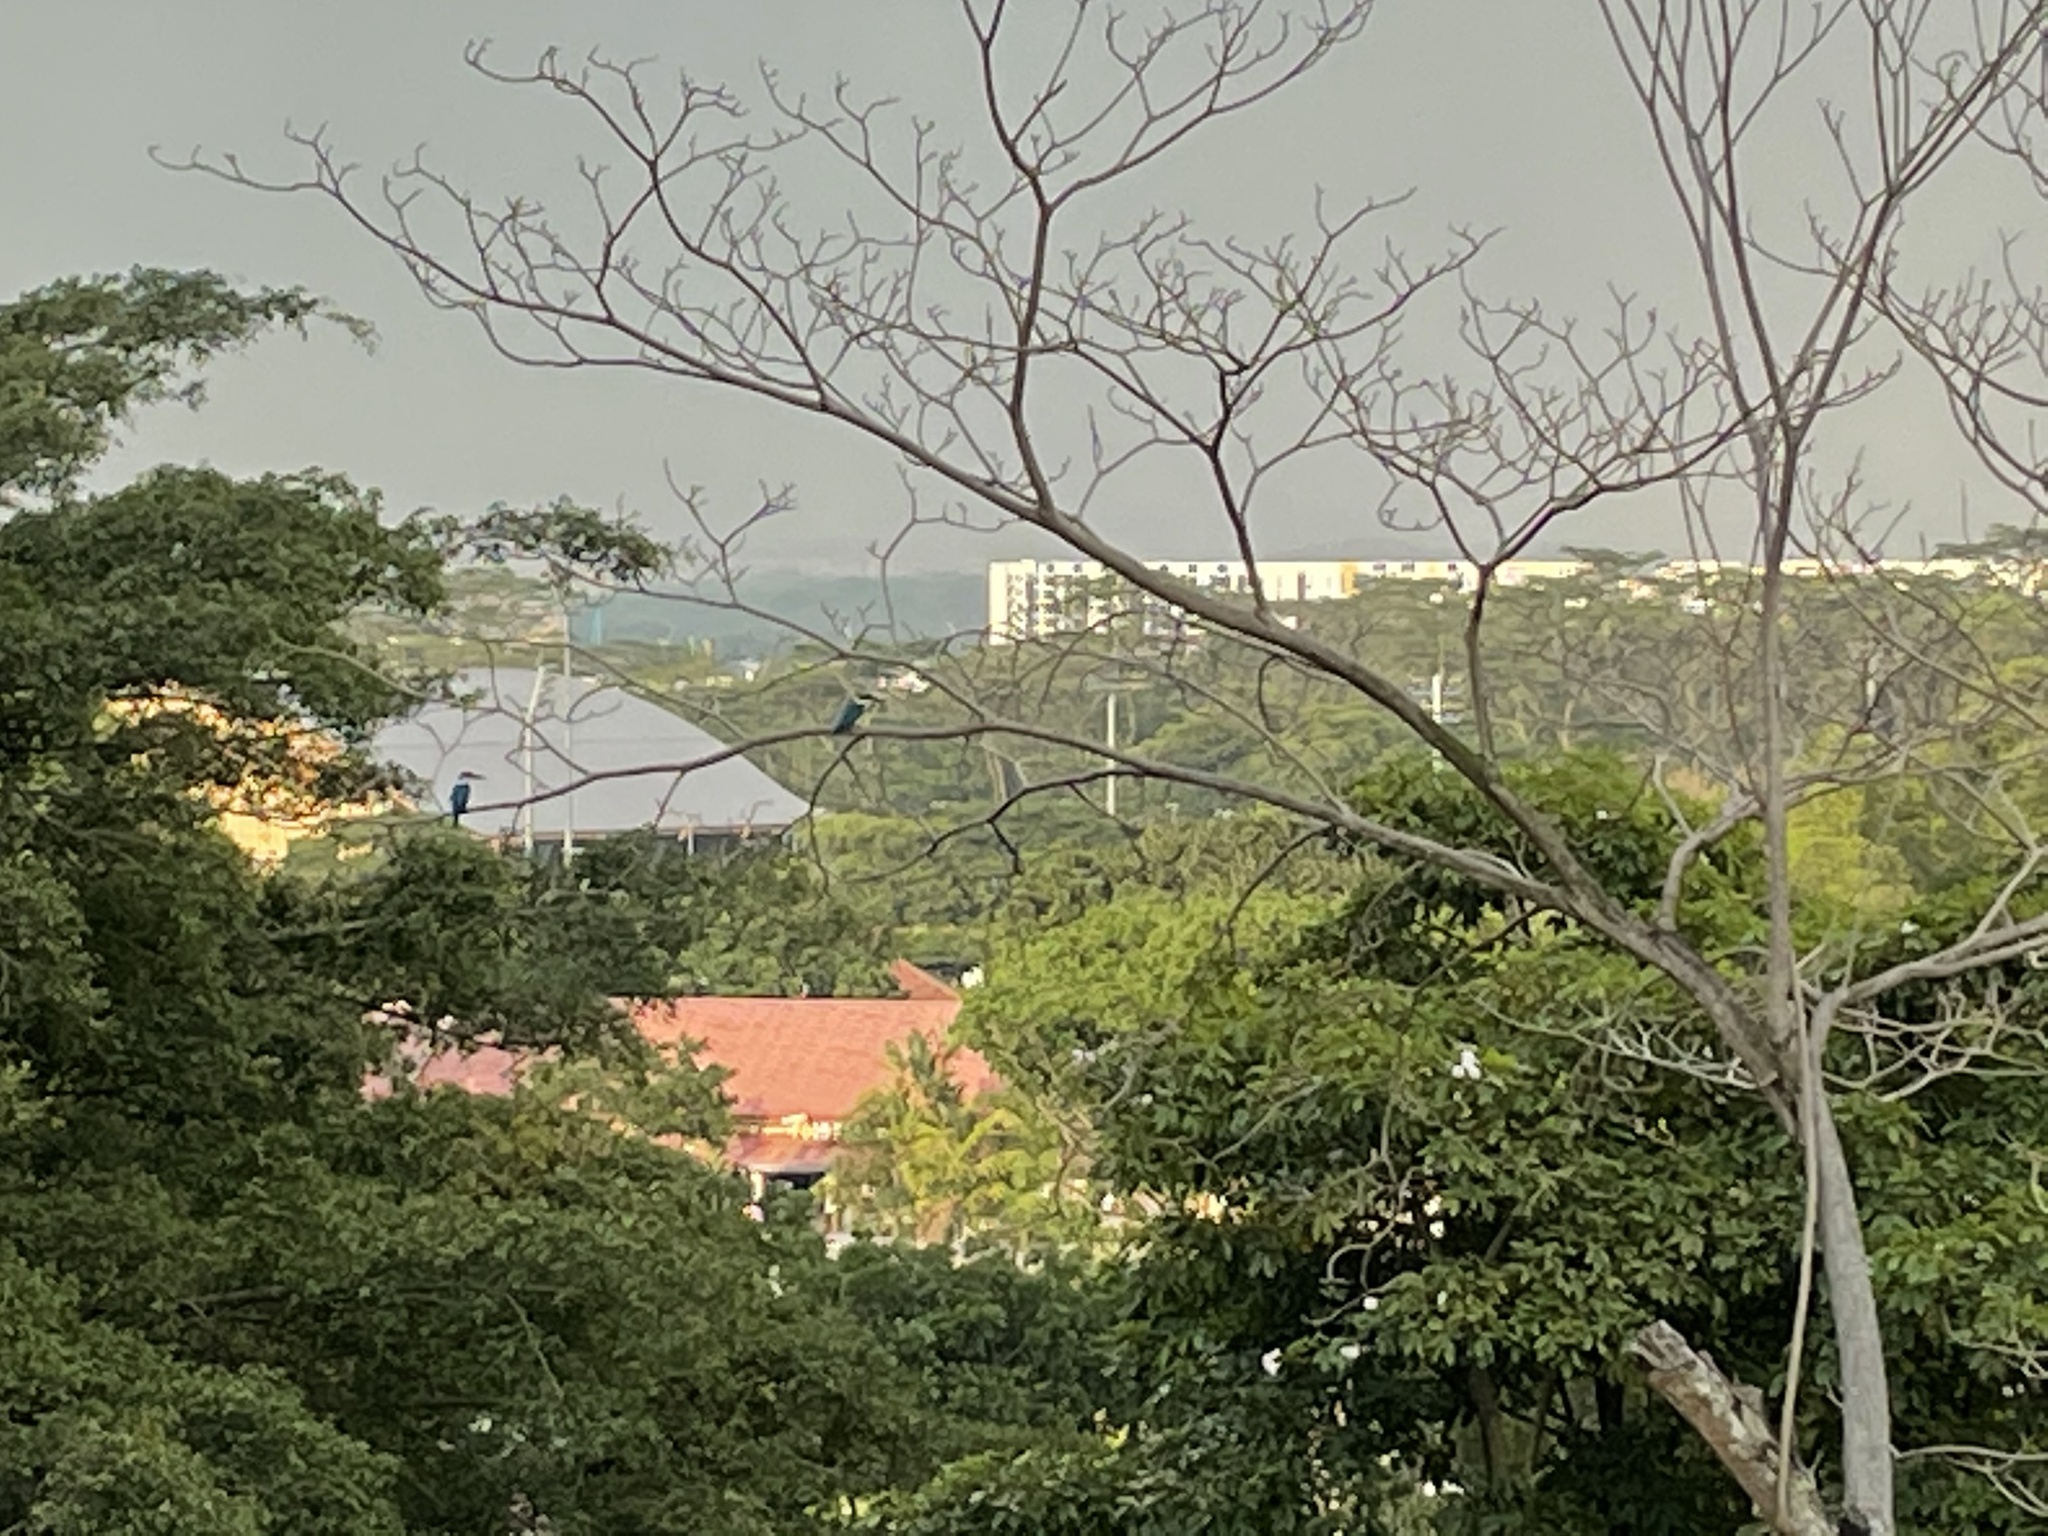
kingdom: Animalia
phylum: Chordata
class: Aves
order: Coraciiformes
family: Alcedinidae
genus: Todiramphus
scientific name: Todiramphus chloris
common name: Collared kingfisher
